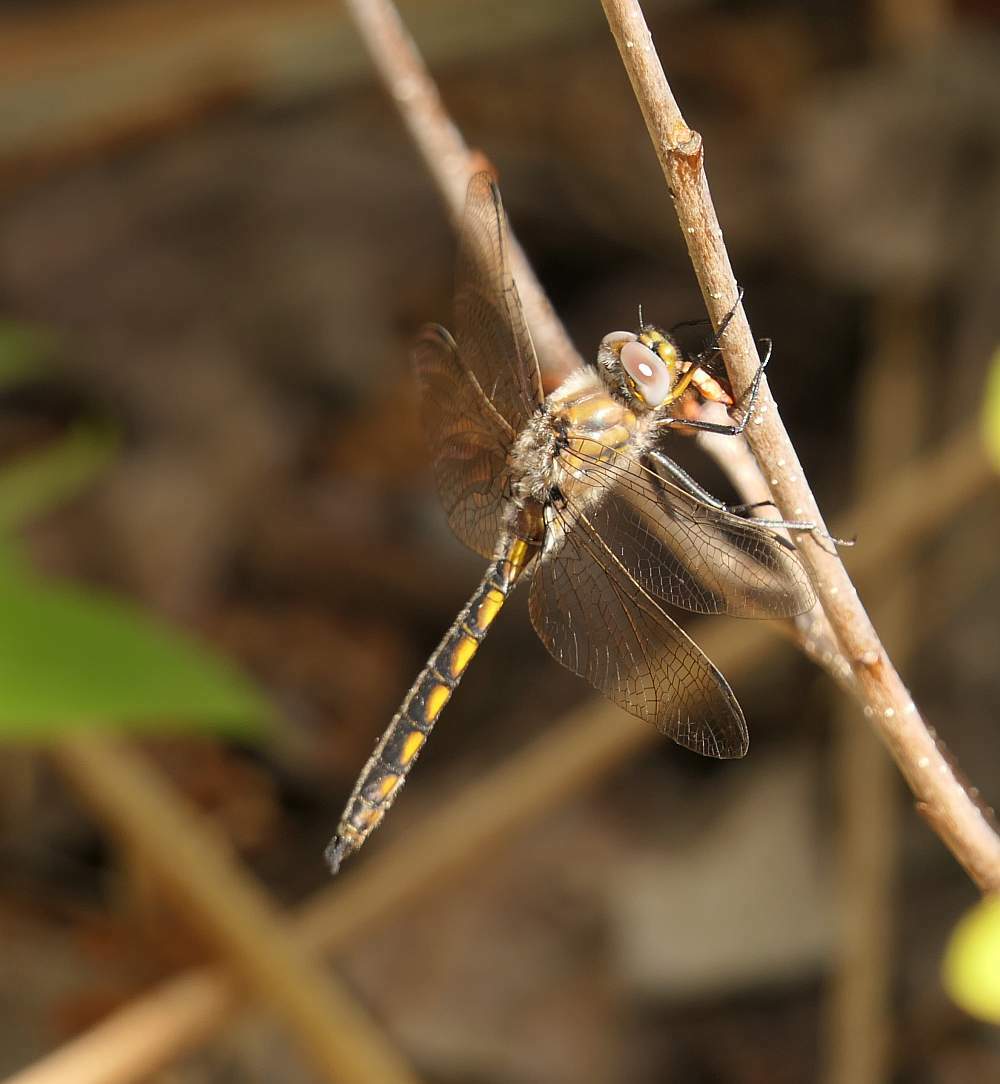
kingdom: Animalia
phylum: Arthropoda
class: Insecta
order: Odonata
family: Corduliidae
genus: Epitheca
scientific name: Epitheca canis
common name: Beaverpond baskettail
